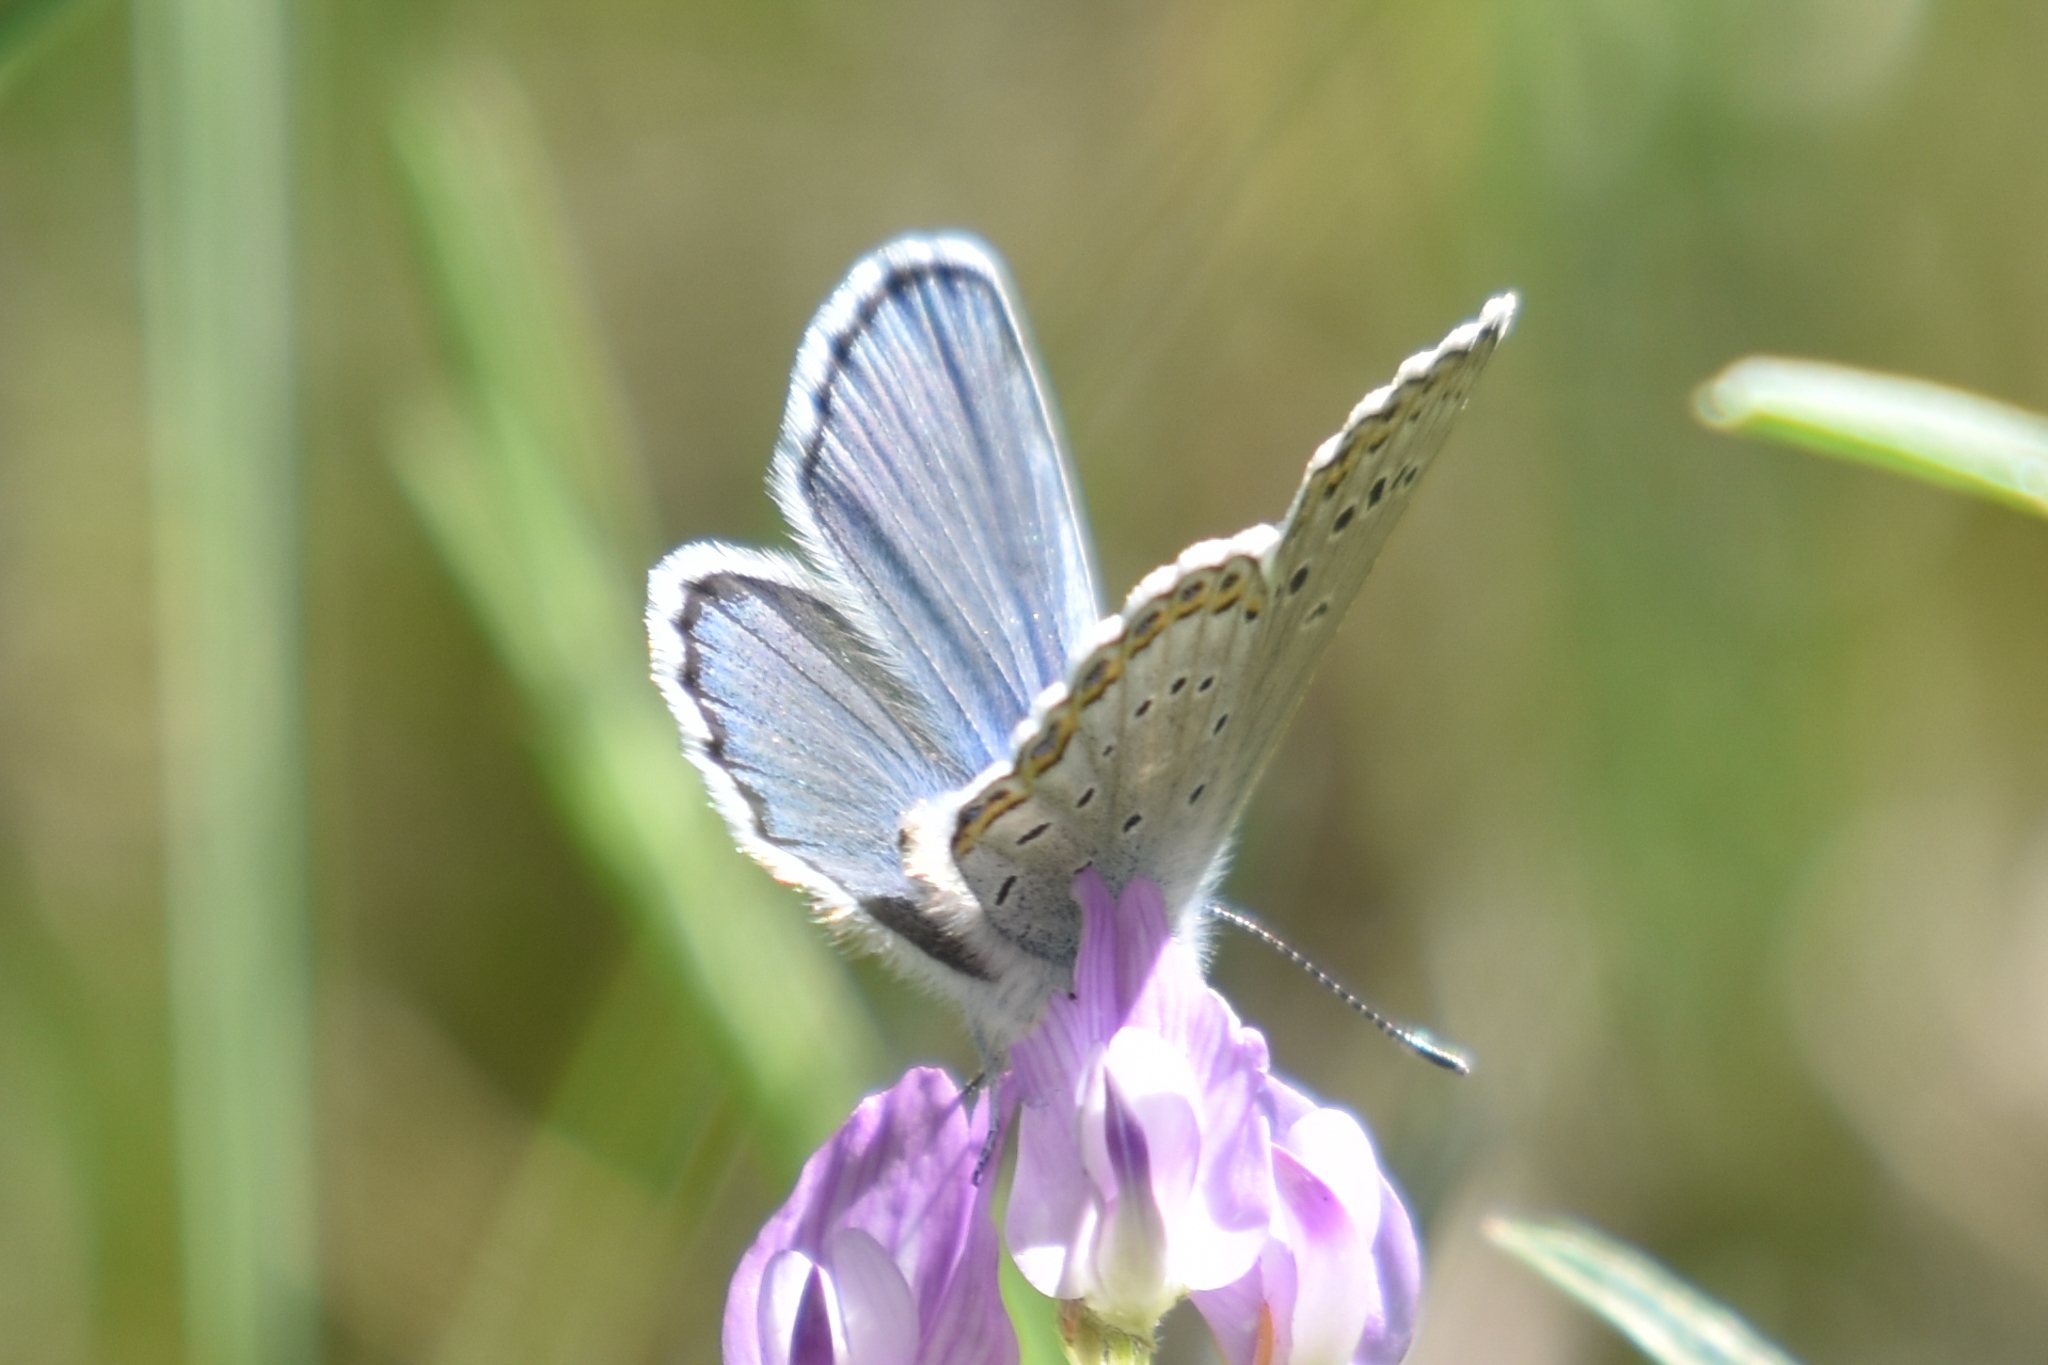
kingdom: Animalia
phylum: Arthropoda
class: Insecta
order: Lepidoptera
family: Lycaenidae
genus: Lycaeides
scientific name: Lycaeides idas
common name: Northern blue
